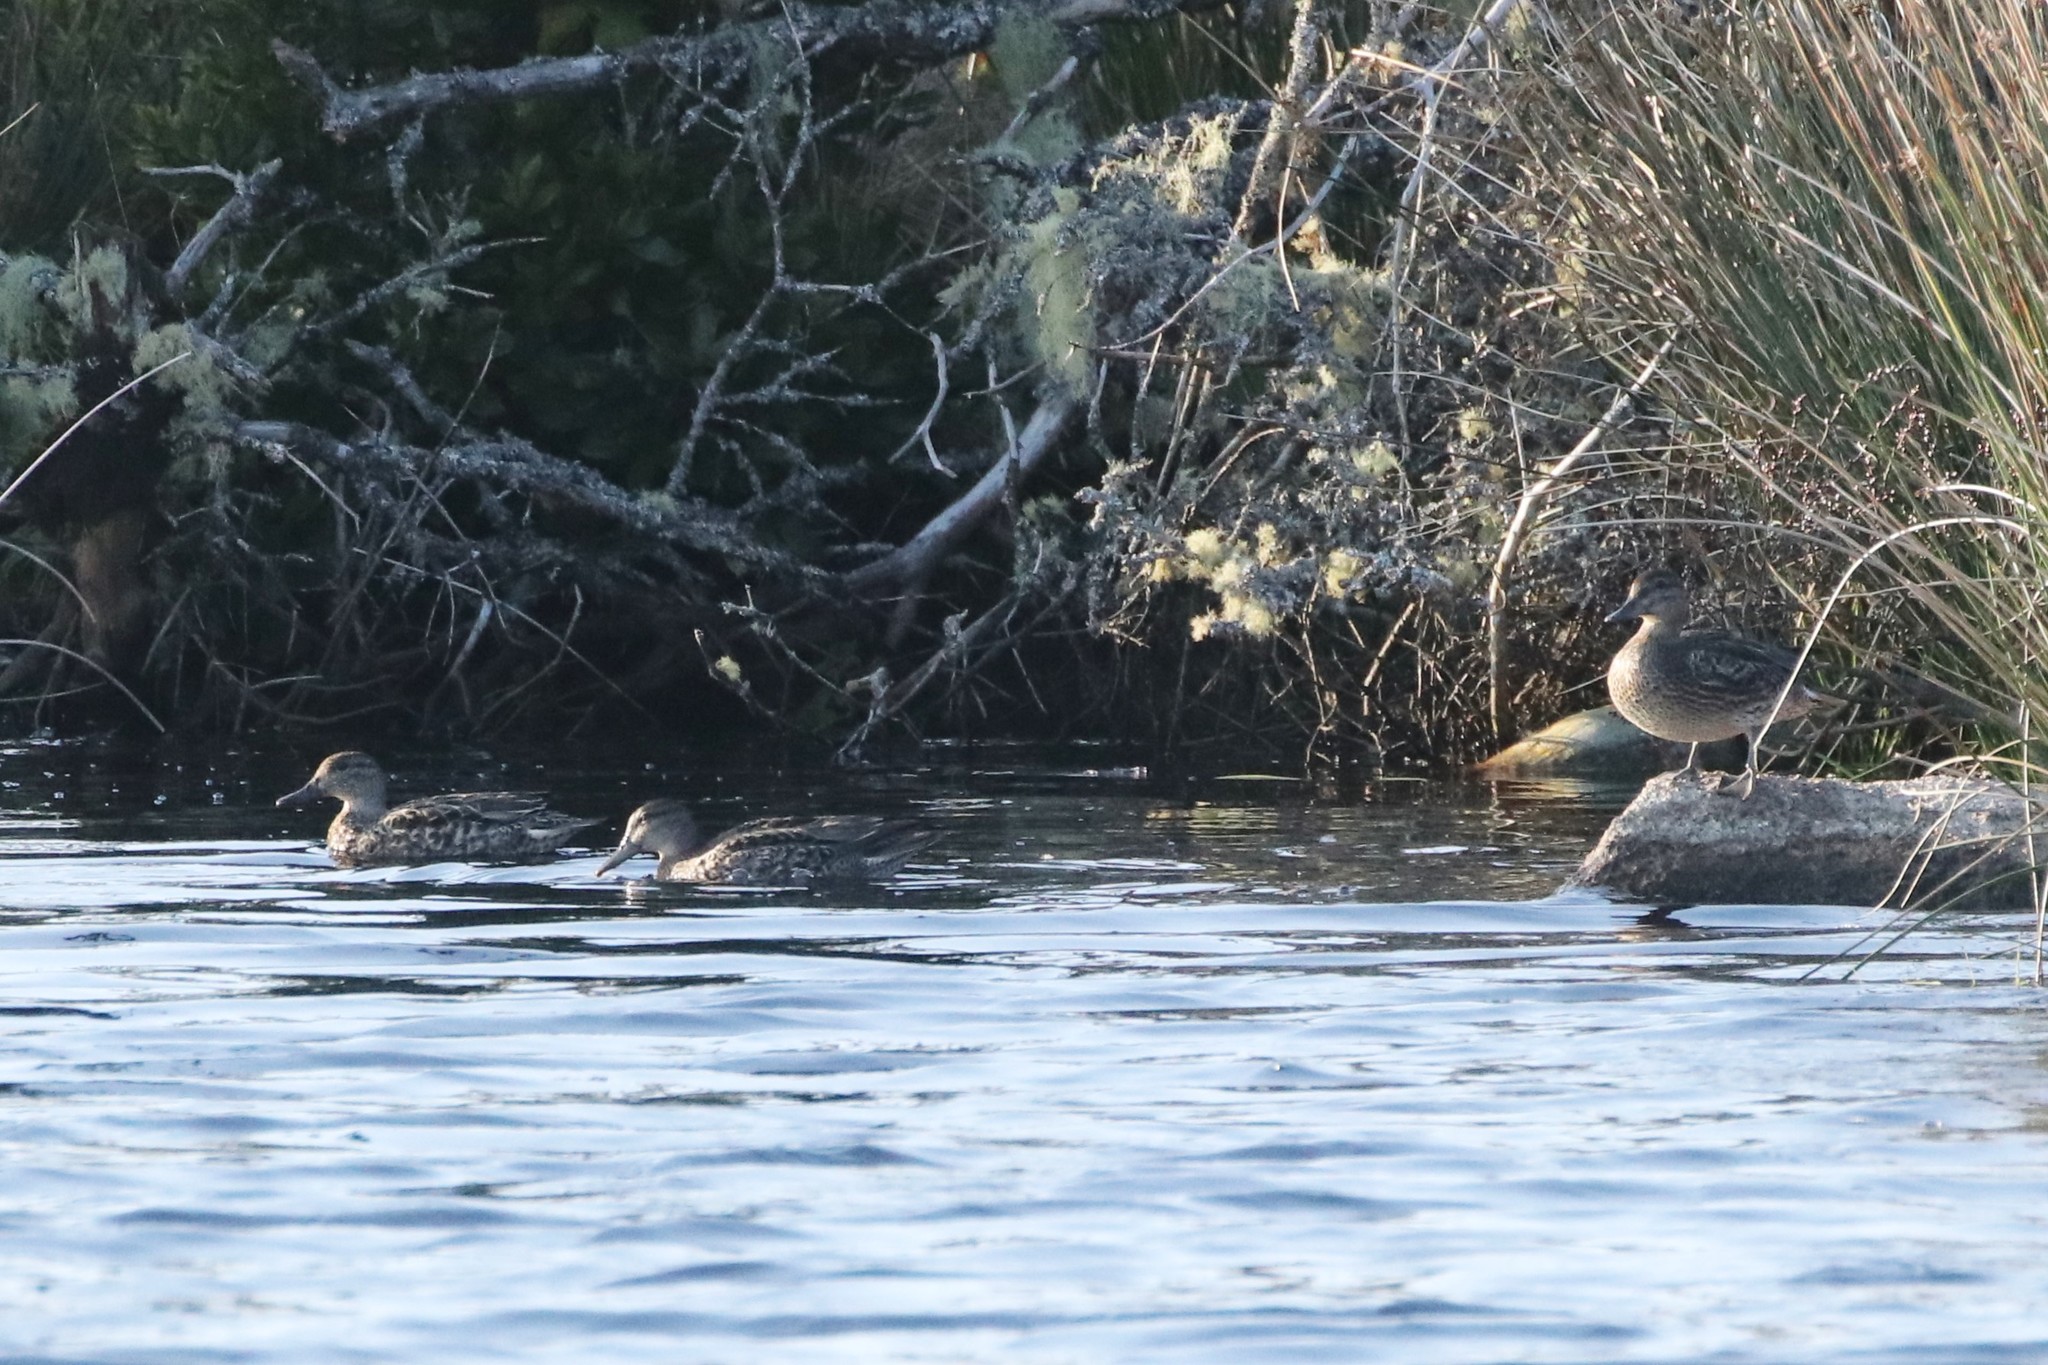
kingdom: Animalia
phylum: Chordata
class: Aves
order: Anseriformes
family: Anatidae
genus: Anas
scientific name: Anas crecca
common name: Eurasian teal
